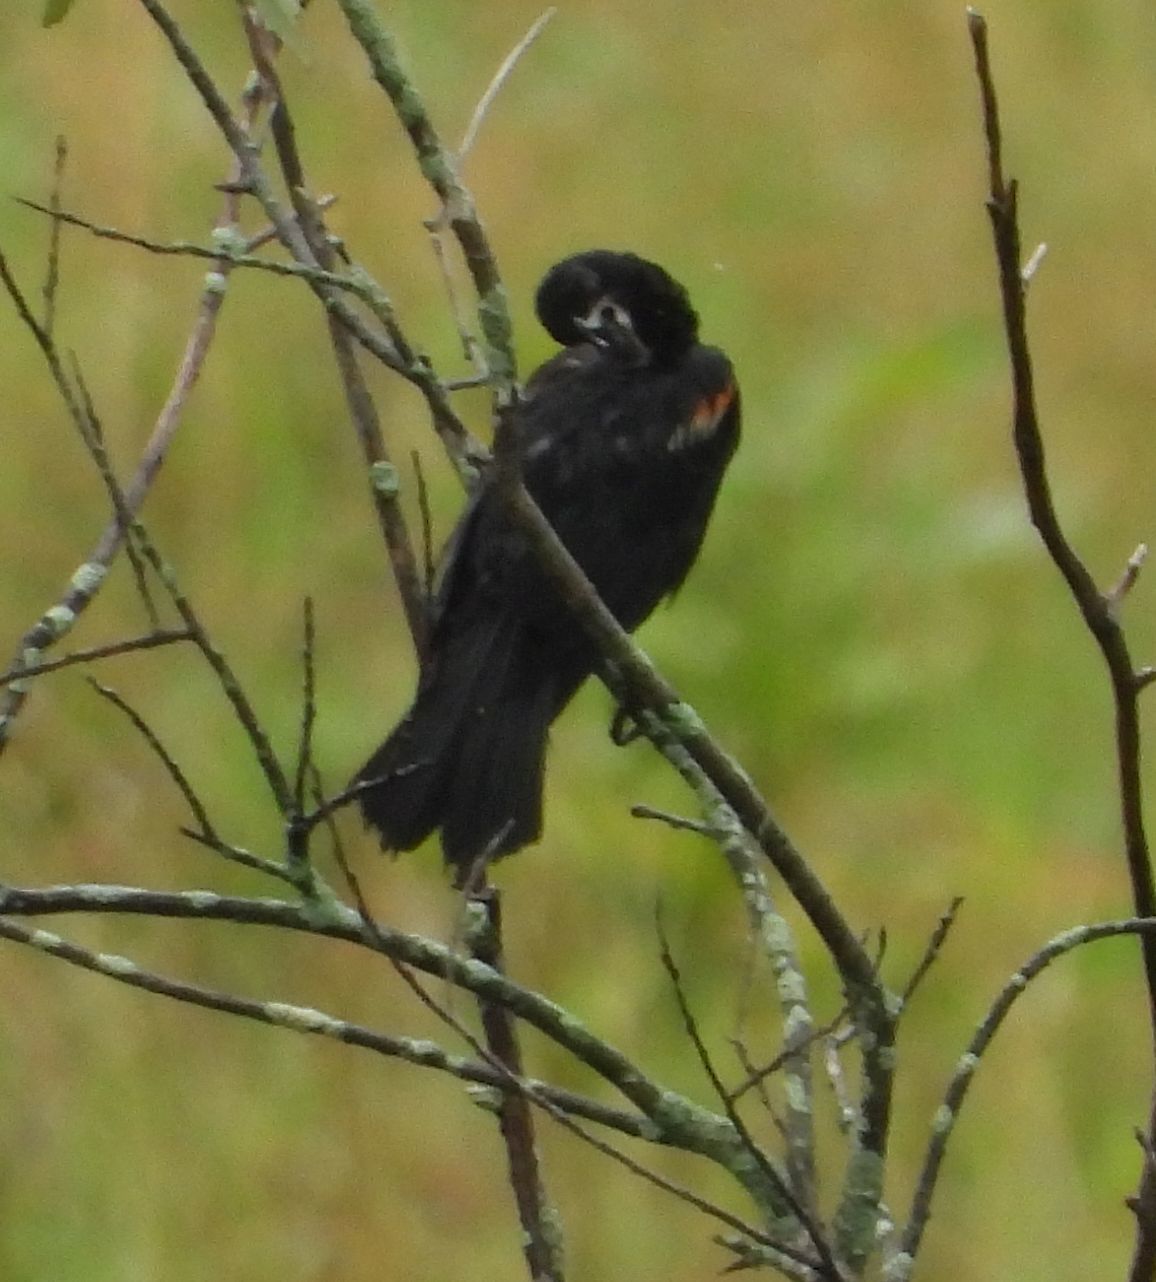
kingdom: Animalia
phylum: Chordata
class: Aves
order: Passeriformes
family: Icteridae
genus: Agelaius
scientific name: Agelaius phoeniceus
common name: Red-winged blackbird
